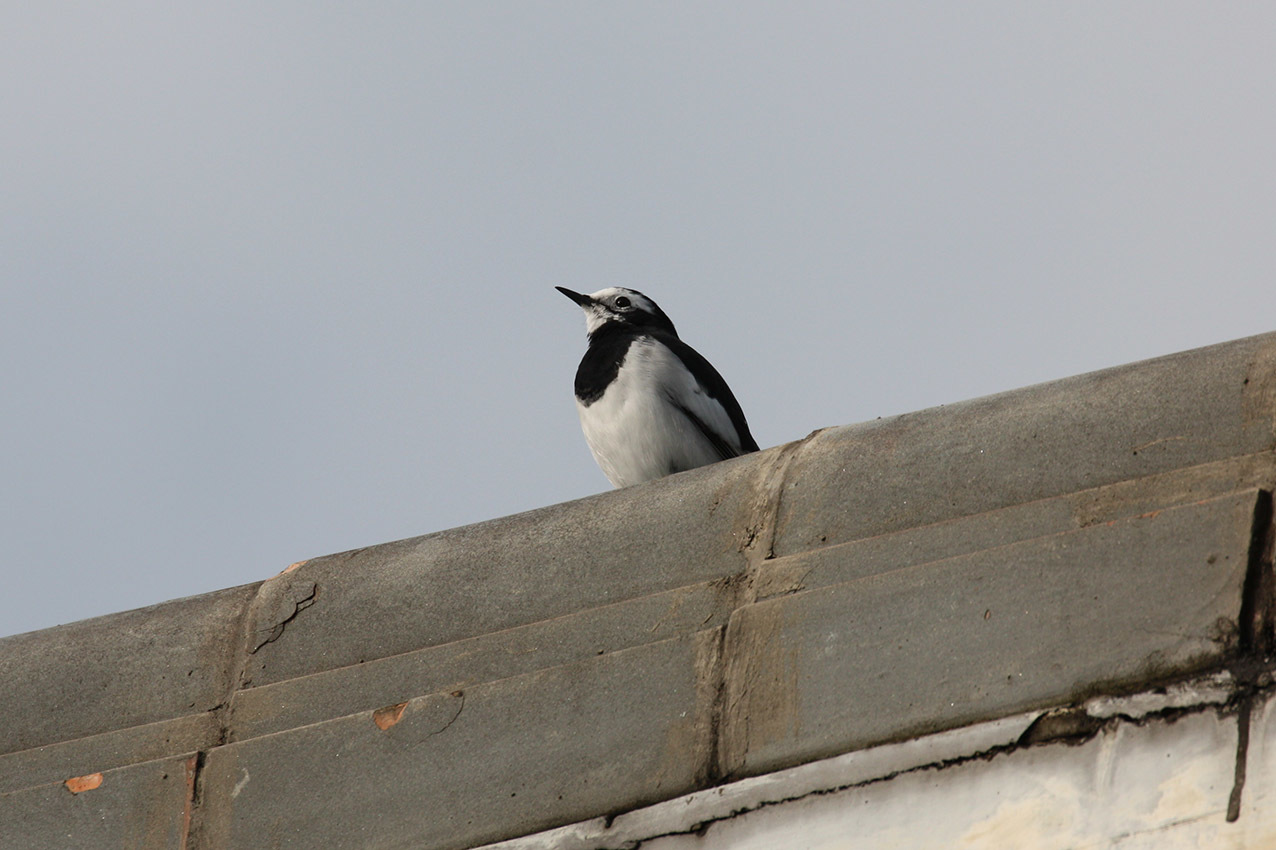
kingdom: Animalia
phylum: Chordata
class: Aves
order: Passeriformes
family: Motacillidae
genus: Motacilla
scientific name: Motacilla alba
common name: White wagtail
